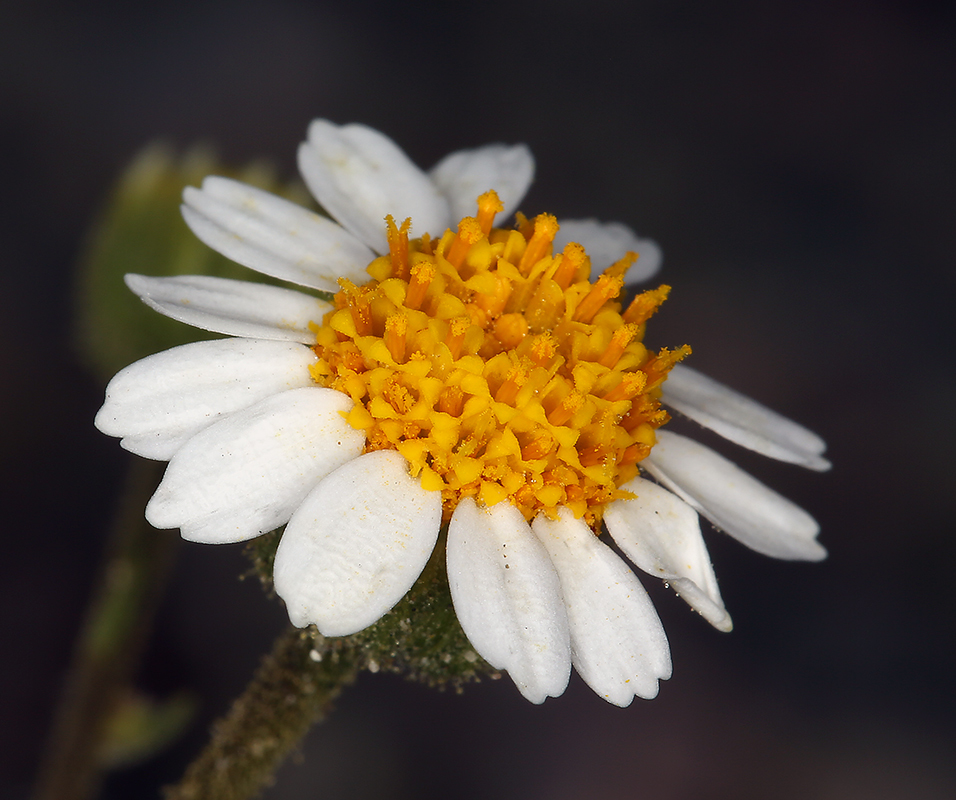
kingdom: Plantae
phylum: Tracheophyta
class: Magnoliopsida
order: Asterales
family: Asteraceae
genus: Laphamia
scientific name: Laphamia emoryi
